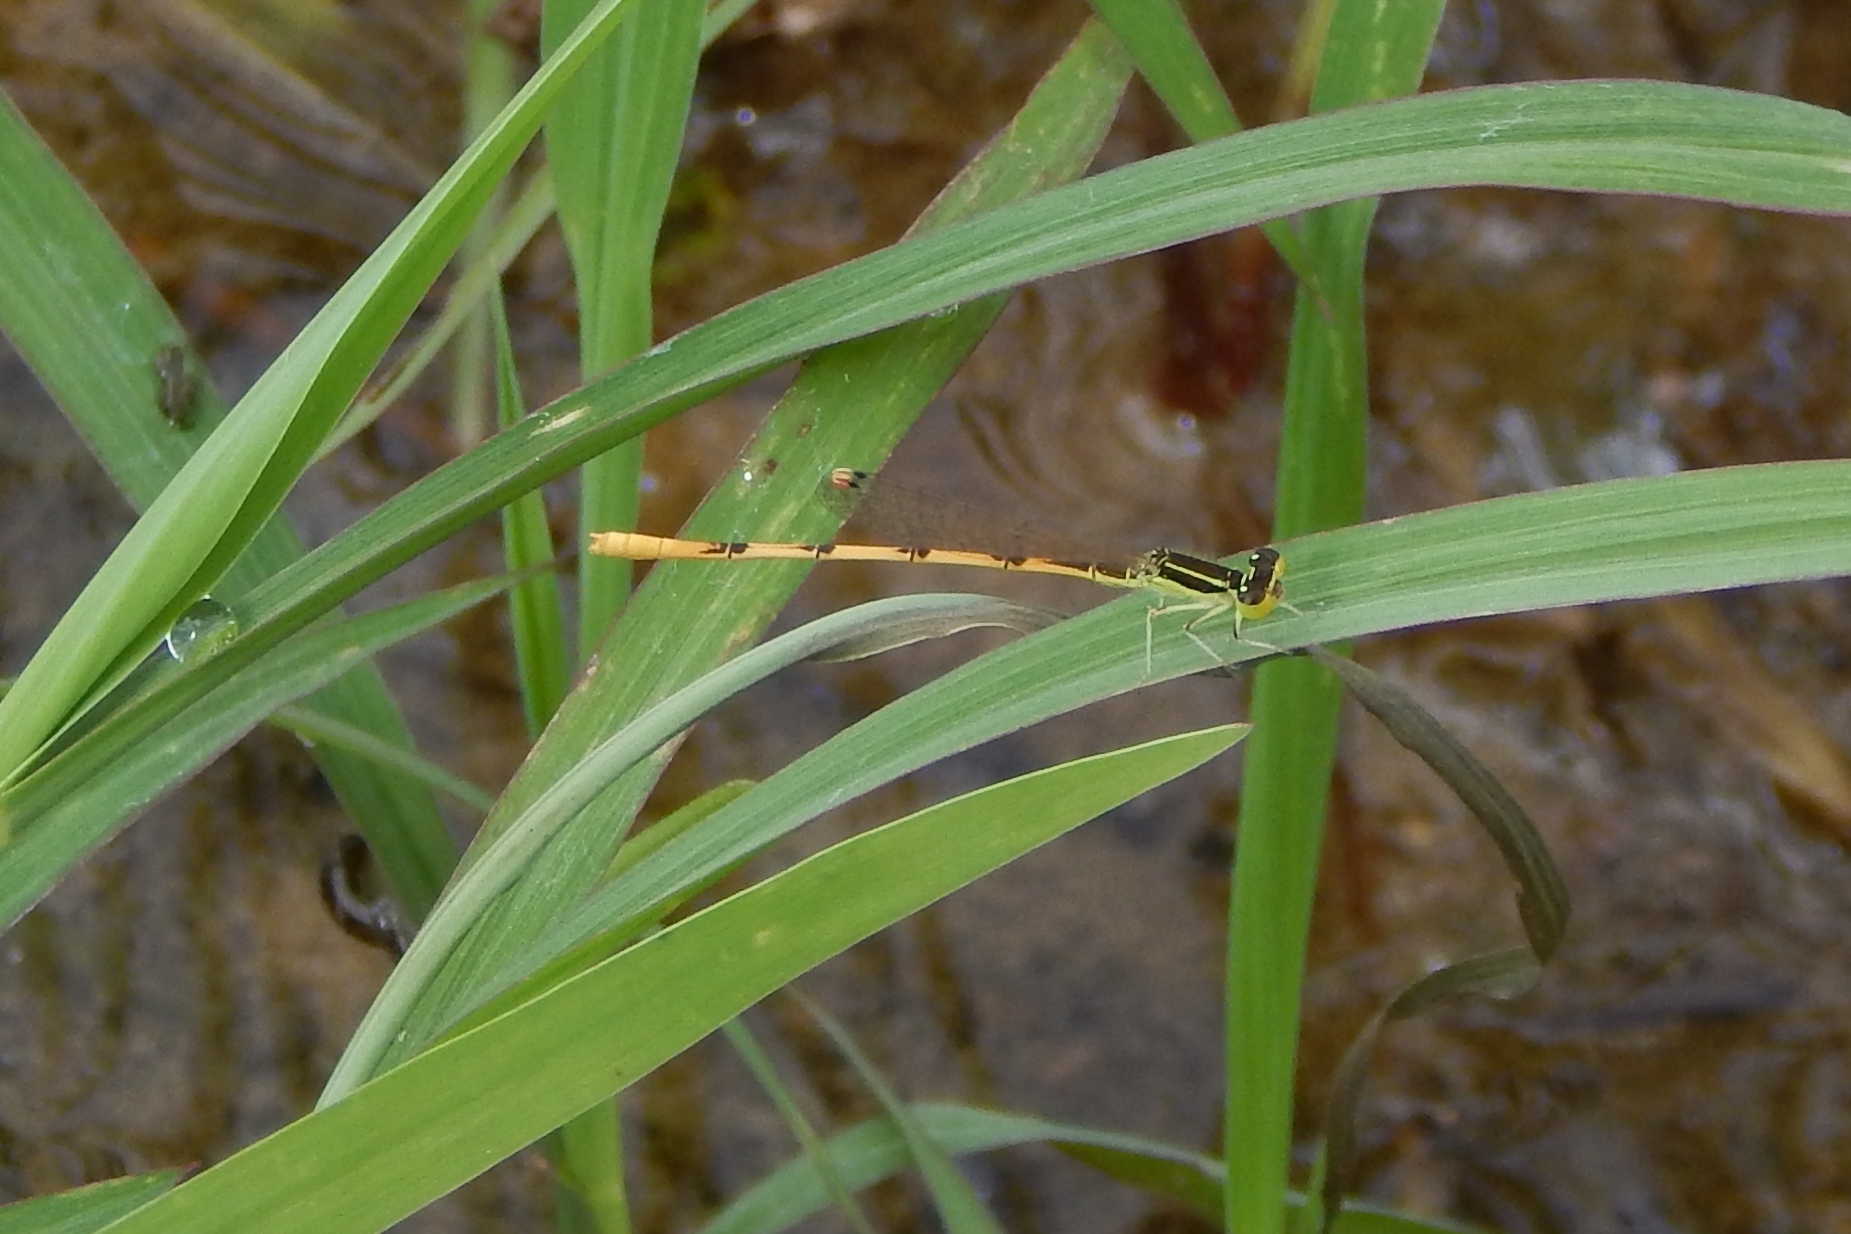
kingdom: Animalia
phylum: Arthropoda
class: Insecta
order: Odonata
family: Coenagrionidae
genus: Ischnura
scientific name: Ischnura hastata
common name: Citrine forktail
